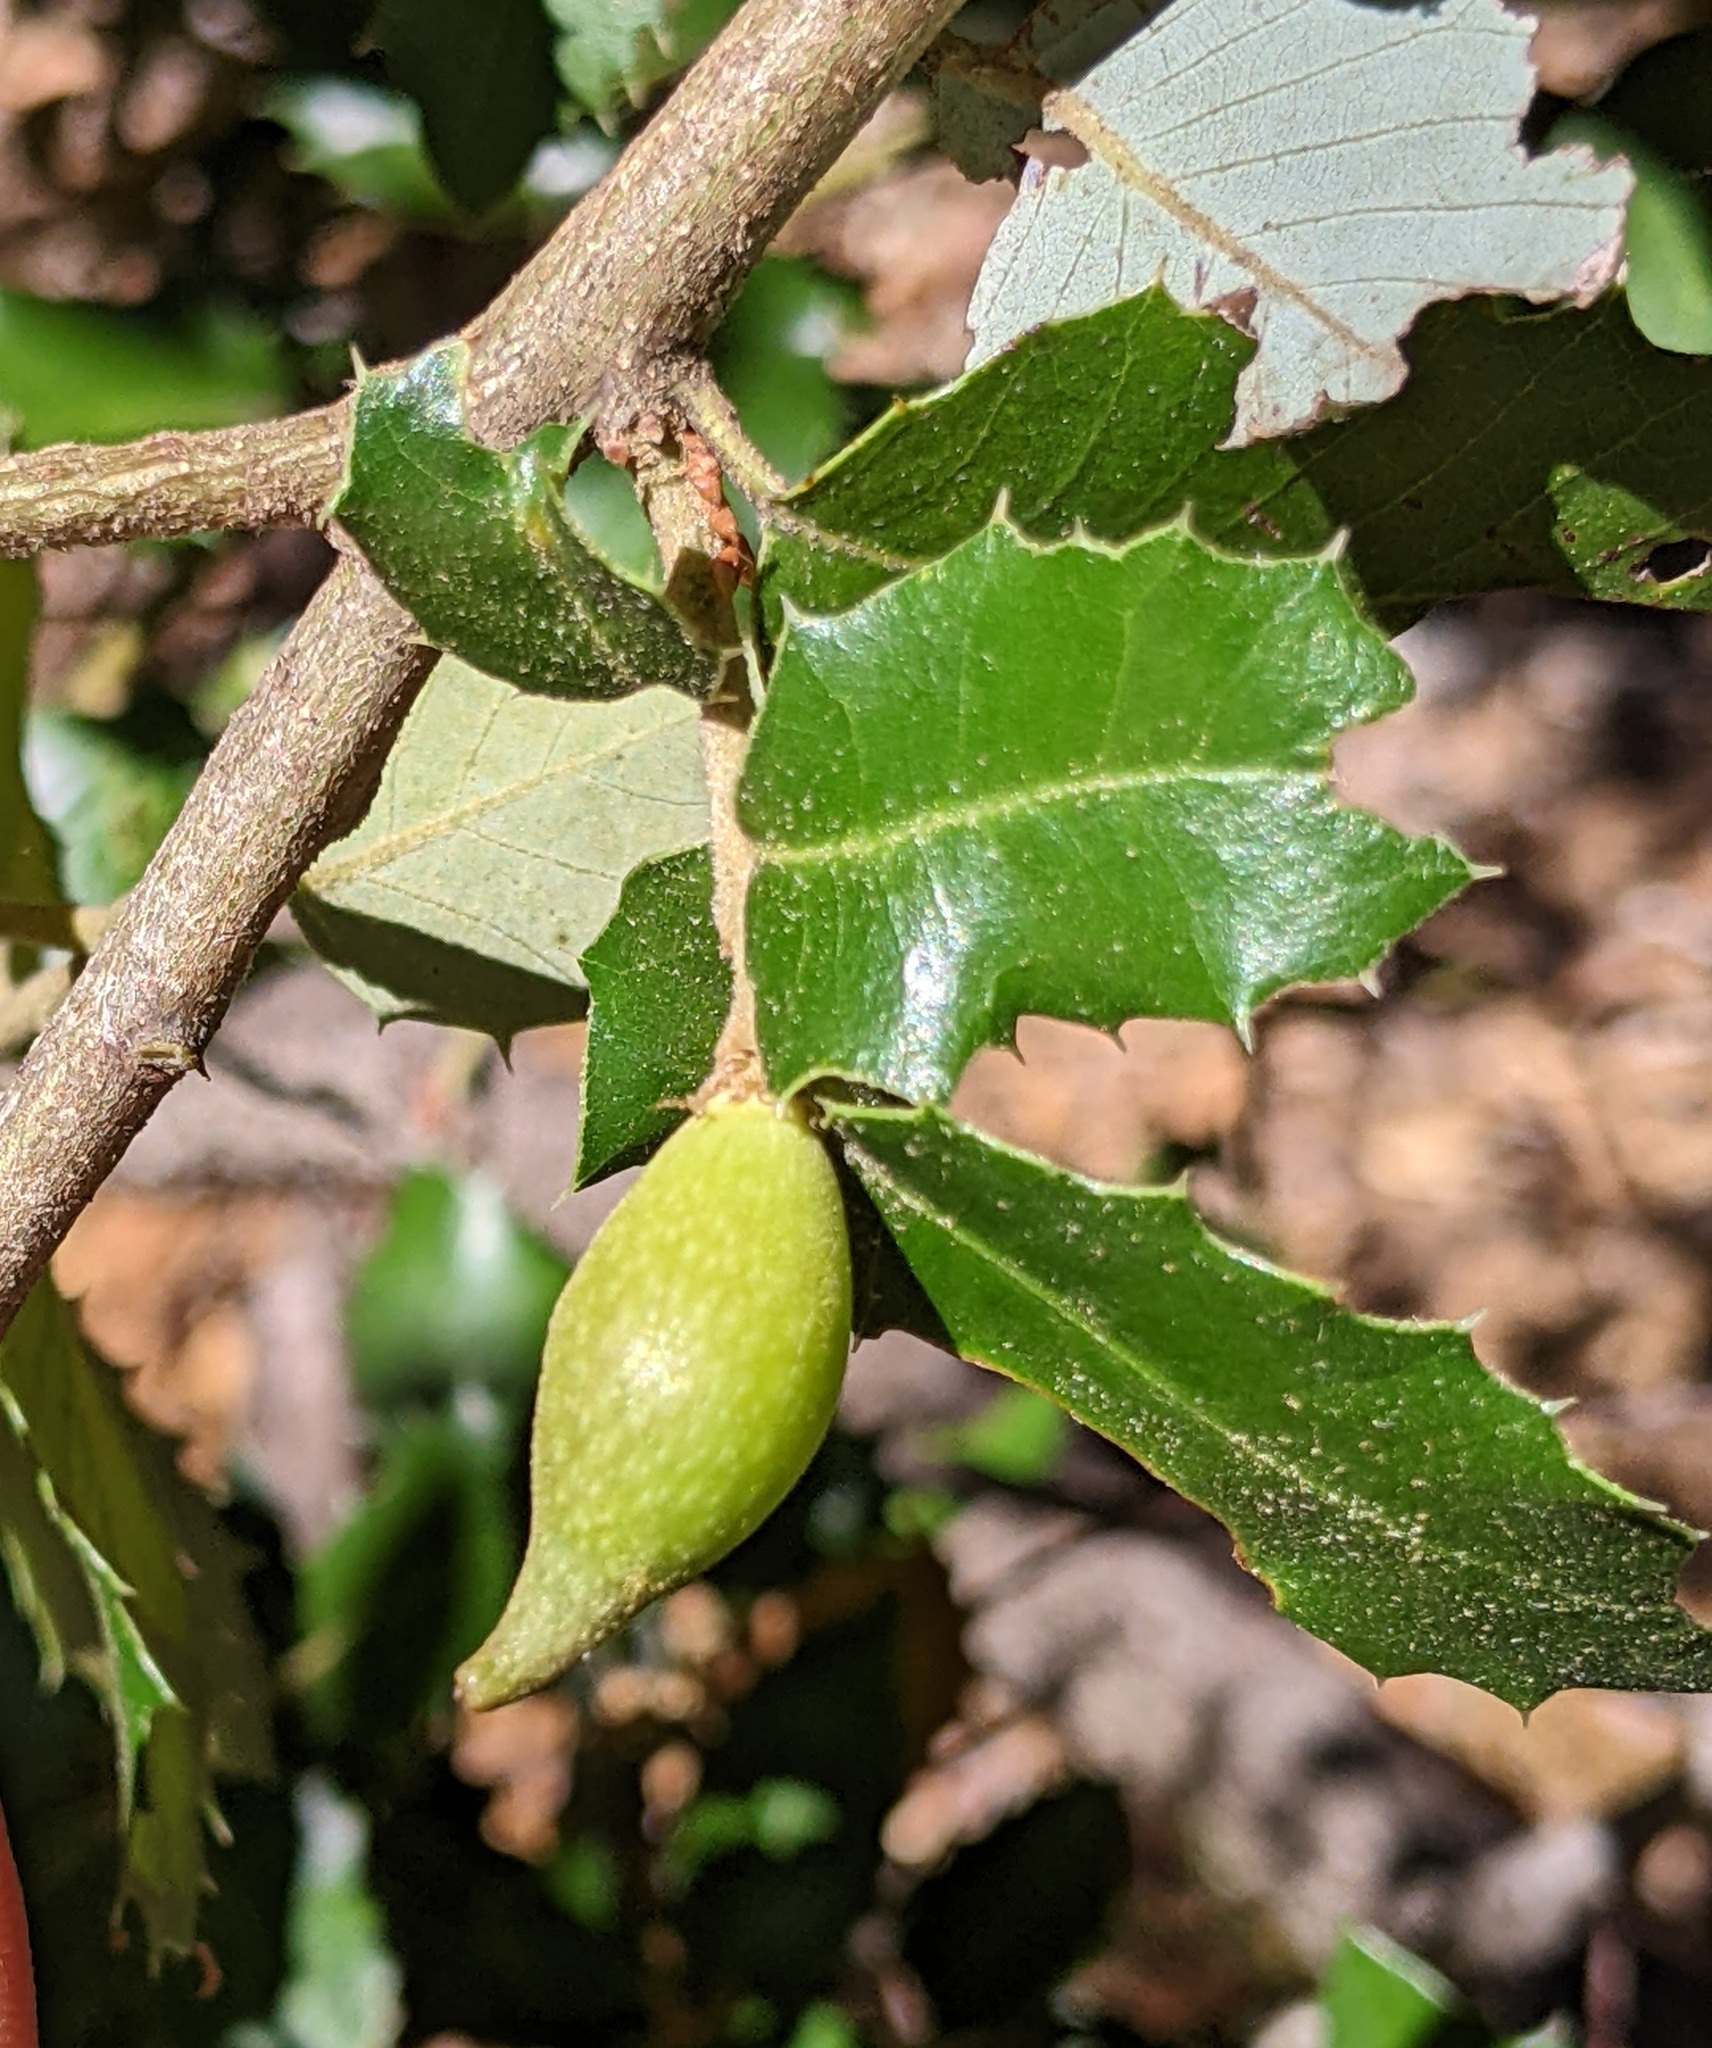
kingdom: Animalia
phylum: Arthropoda
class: Insecta
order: Hymenoptera
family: Cynipidae
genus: Heteroecus
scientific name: Heteroecus pacificus
